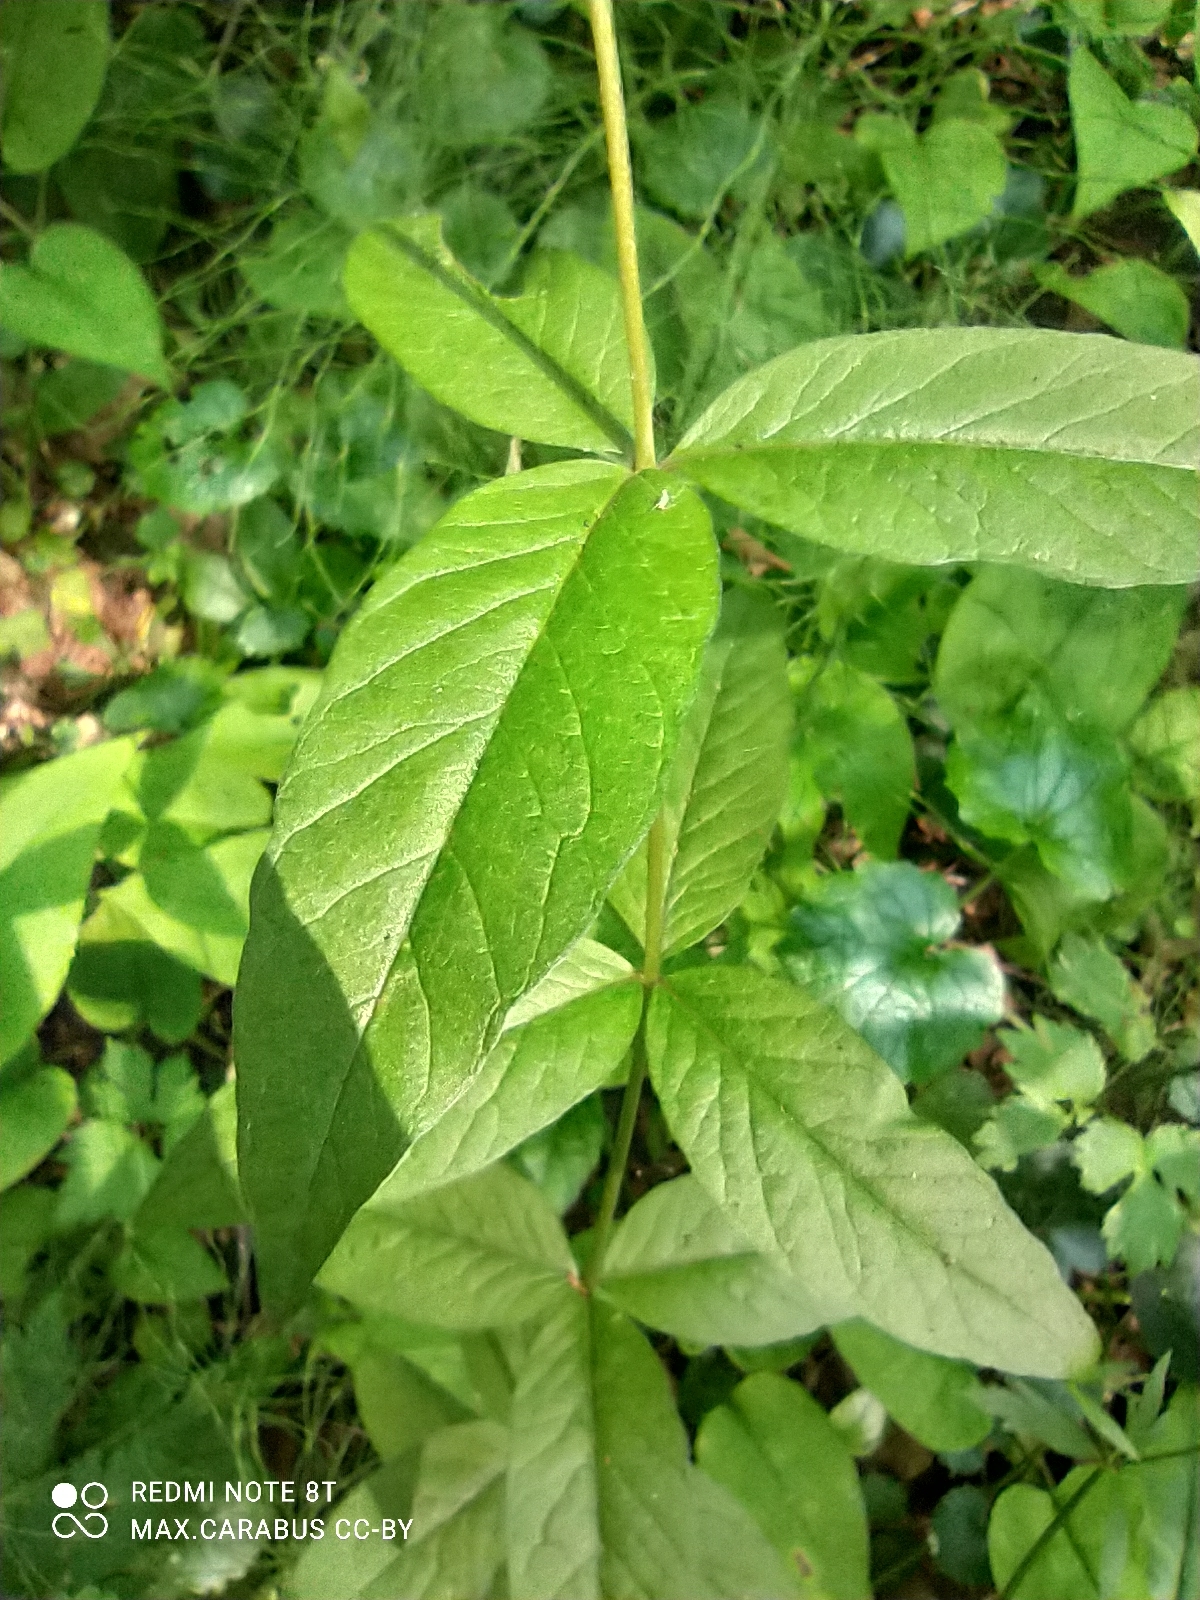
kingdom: Plantae
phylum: Tracheophyta
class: Magnoliopsida
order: Ericales
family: Primulaceae
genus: Lysimachia
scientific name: Lysimachia vulgaris
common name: Yellow loosestrife
